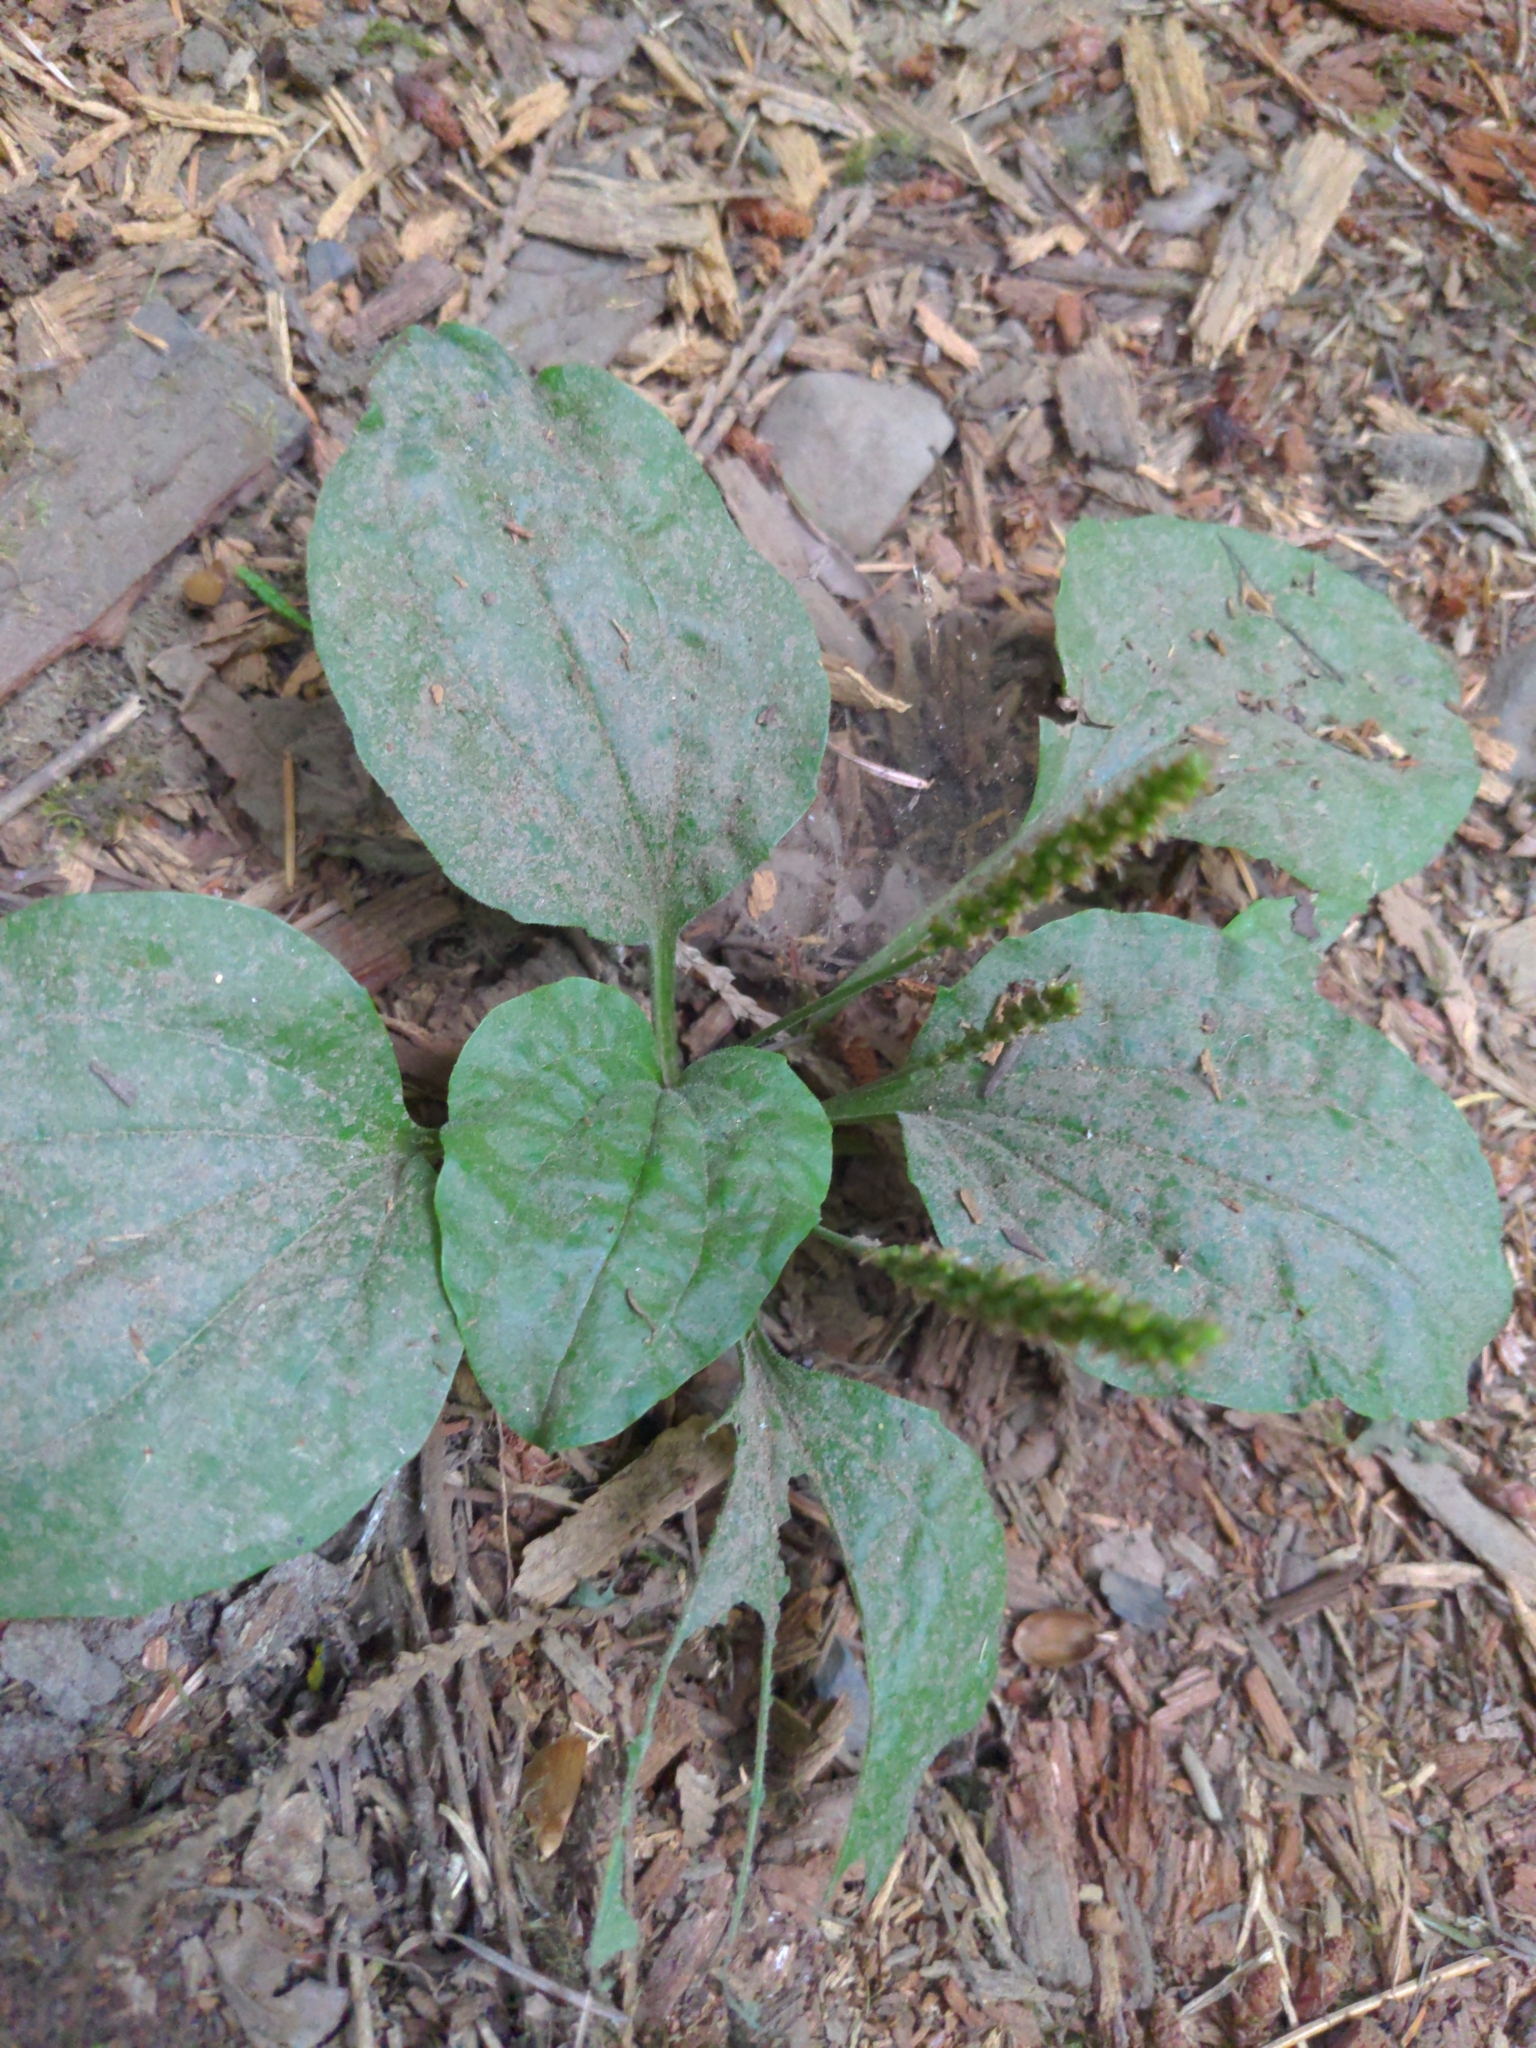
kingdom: Plantae
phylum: Tracheophyta
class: Magnoliopsida
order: Lamiales
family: Plantaginaceae
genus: Plantago
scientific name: Plantago major
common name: Common plantain
